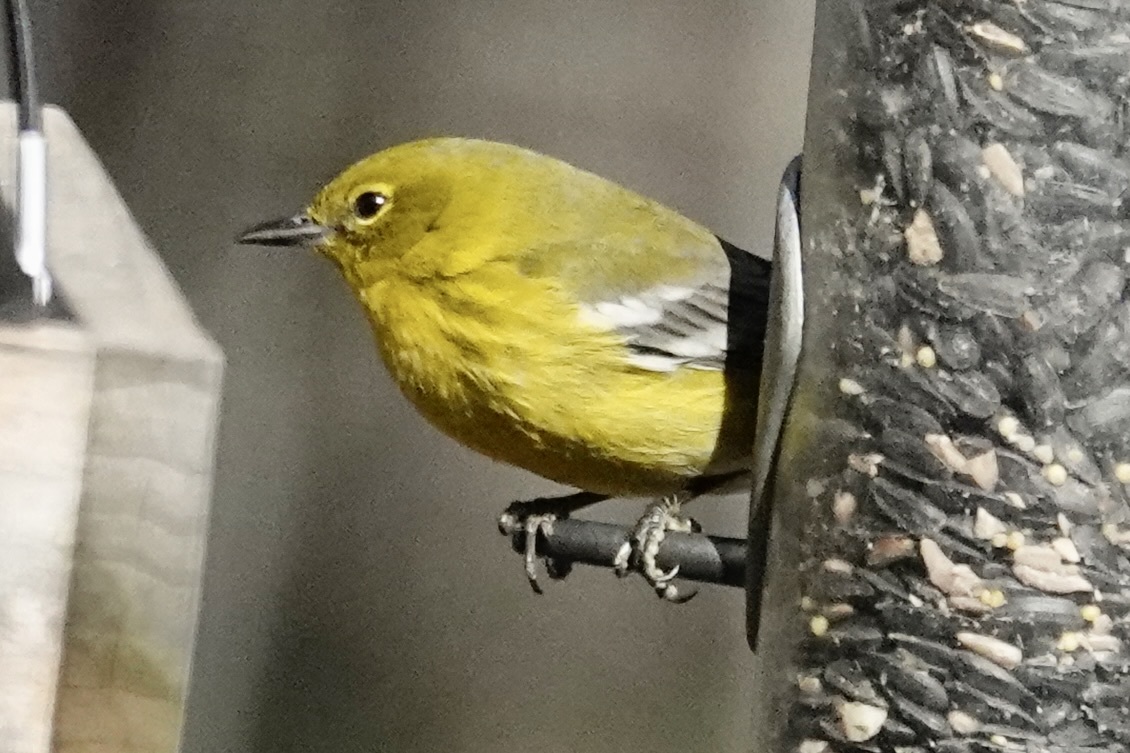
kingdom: Animalia
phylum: Chordata
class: Aves
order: Passeriformes
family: Parulidae
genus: Setophaga
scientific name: Setophaga pinus
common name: Pine warbler
